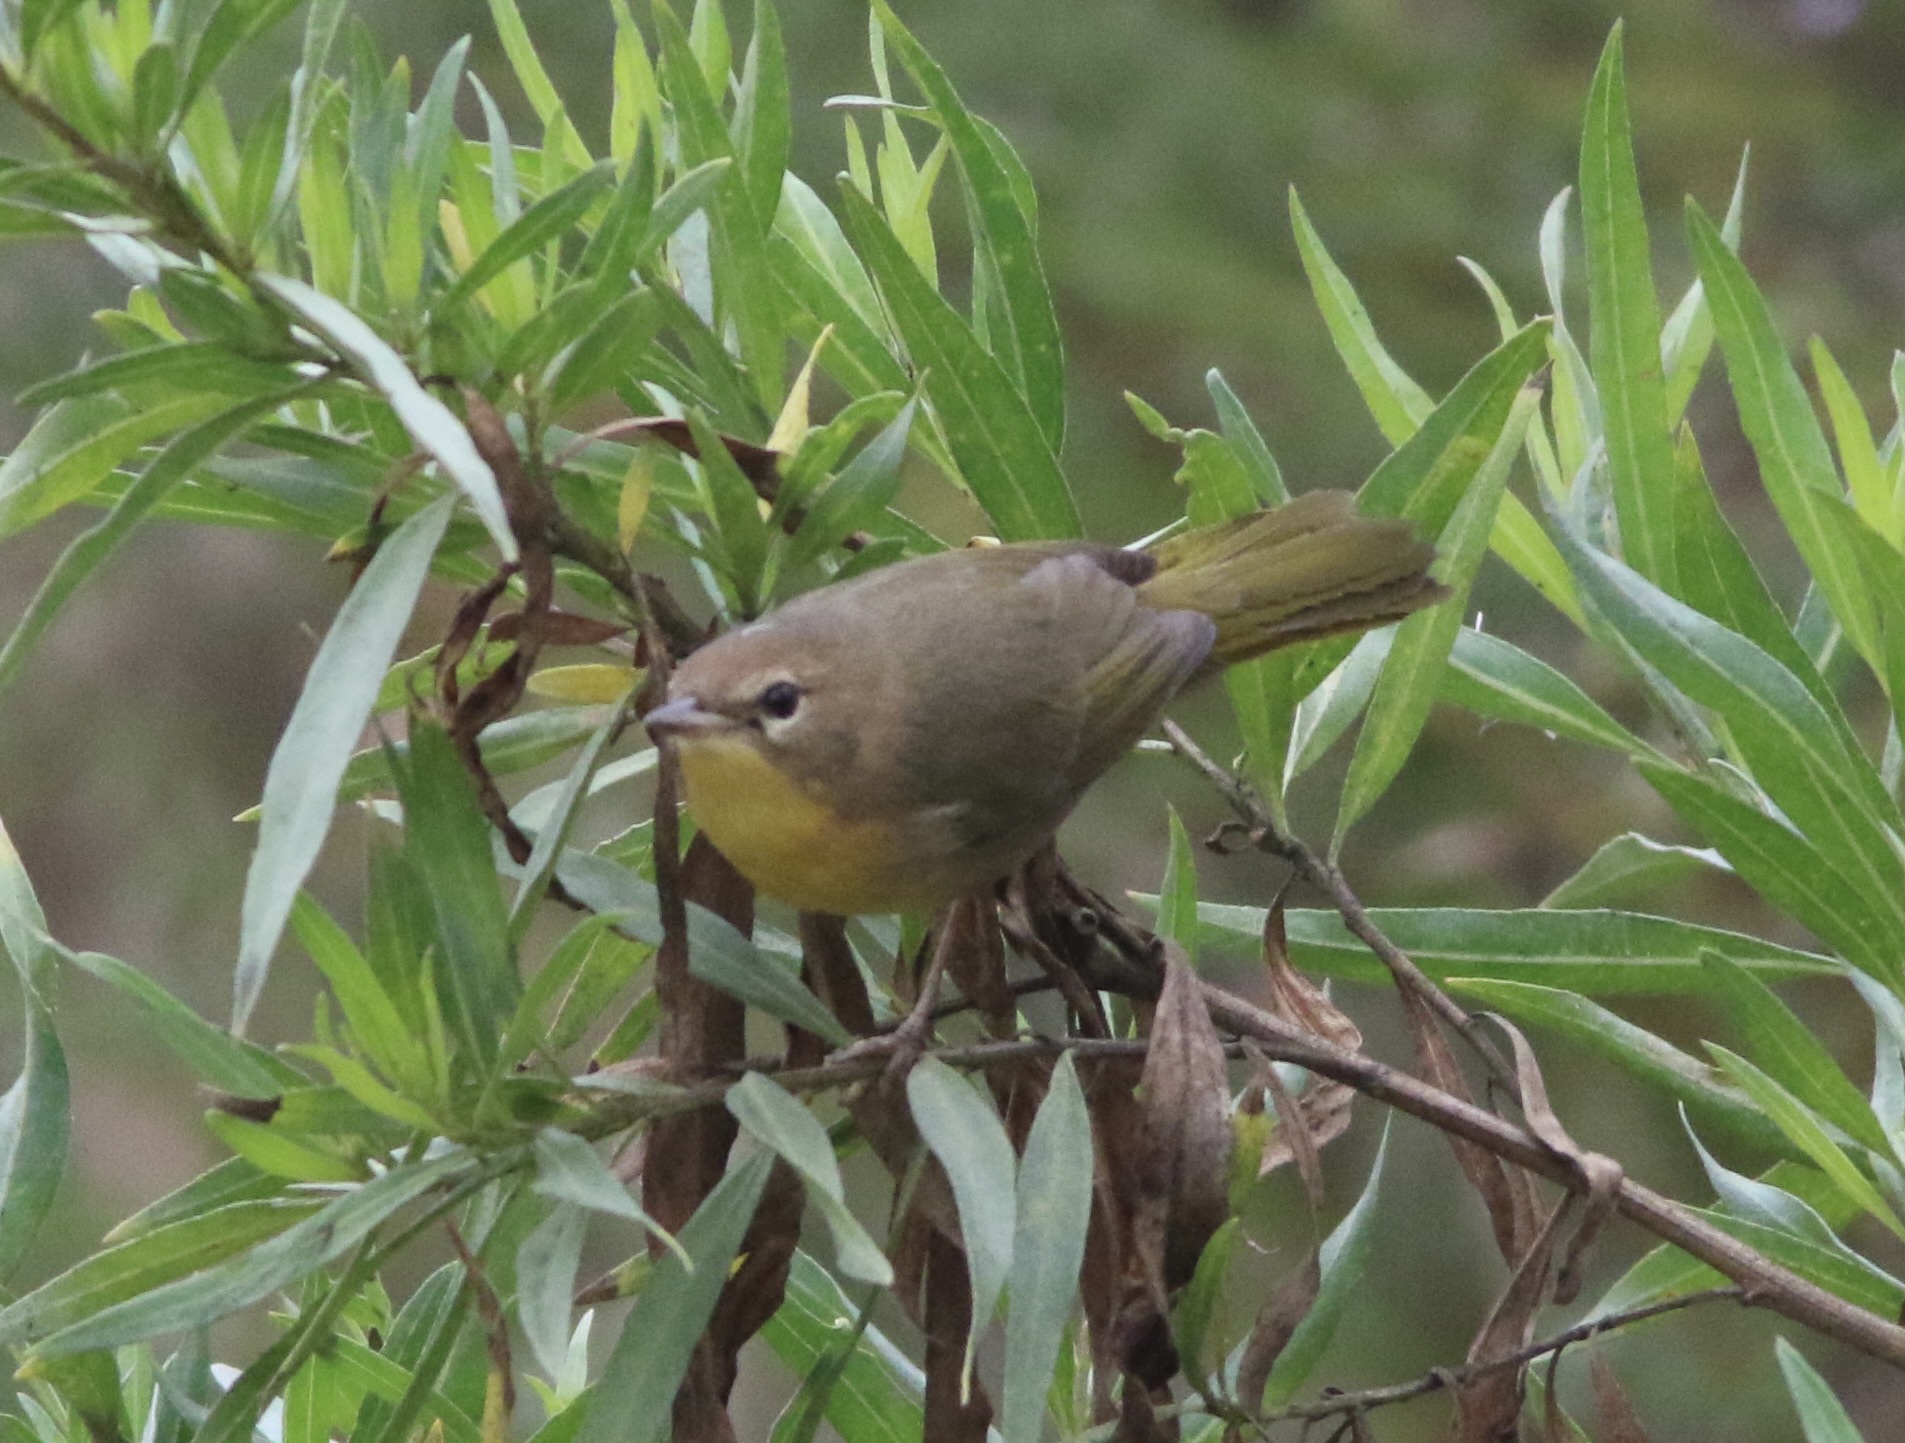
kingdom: Animalia
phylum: Chordata
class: Aves
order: Passeriformes
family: Parulidae
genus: Geothlypis
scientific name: Geothlypis trichas
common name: Common yellowthroat
